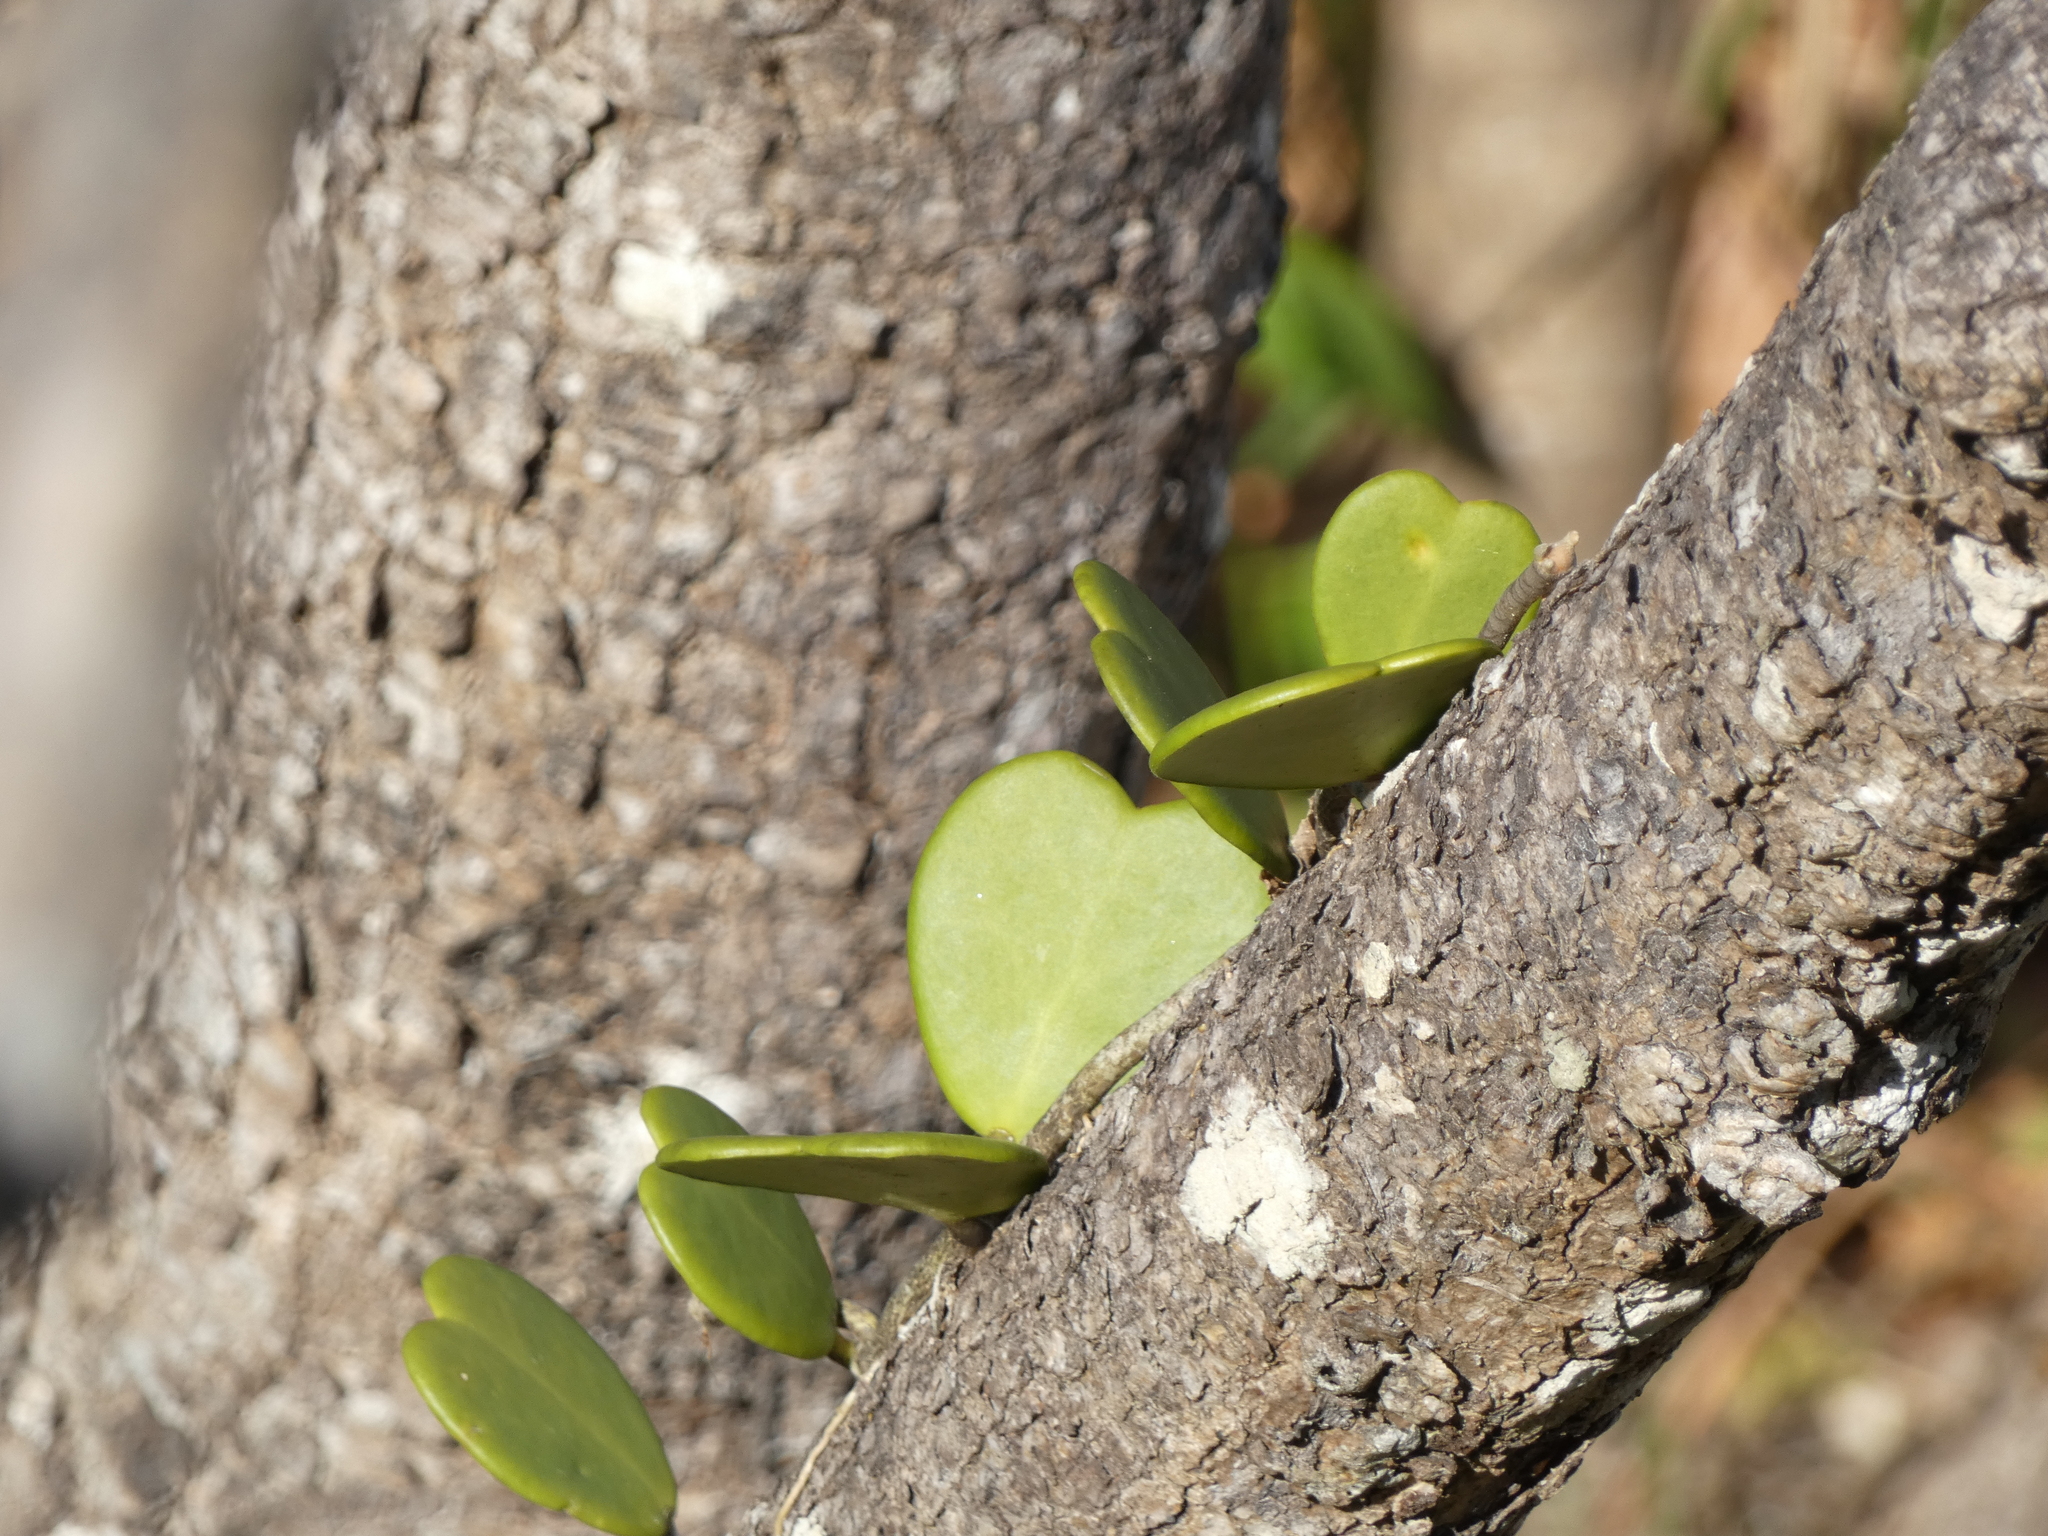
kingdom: Plantae
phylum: Tracheophyta
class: Magnoliopsida
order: Gentianales
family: Apocynaceae
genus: Hoya
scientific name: Hoya kerrii
